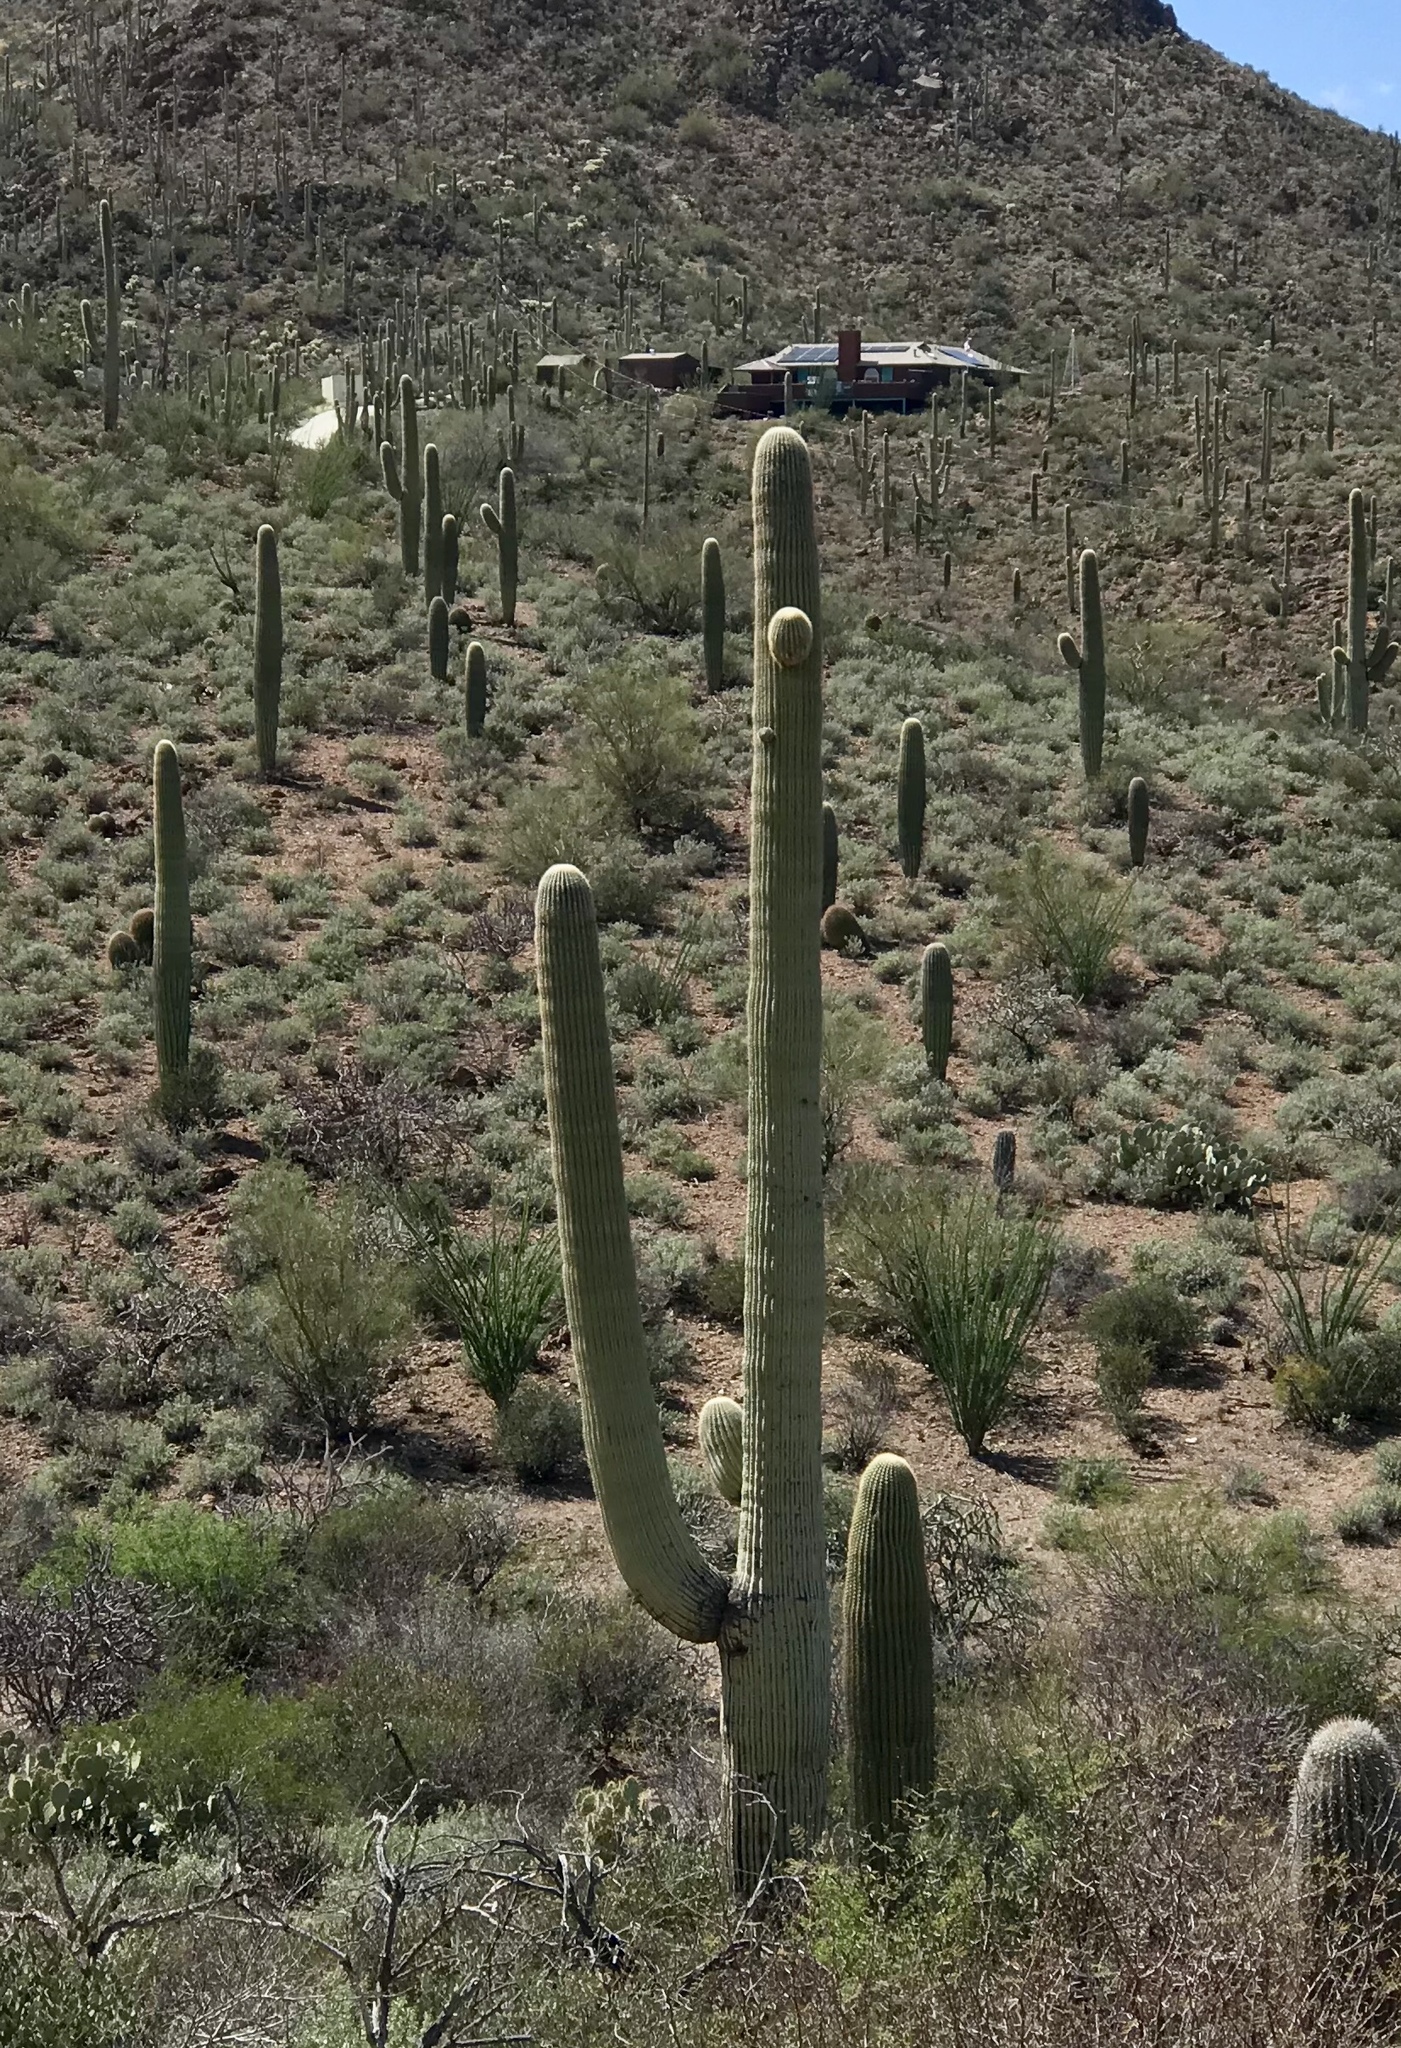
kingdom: Plantae
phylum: Tracheophyta
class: Magnoliopsida
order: Caryophyllales
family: Cactaceae
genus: Carnegiea
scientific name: Carnegiea gigantea
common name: Saguaro
